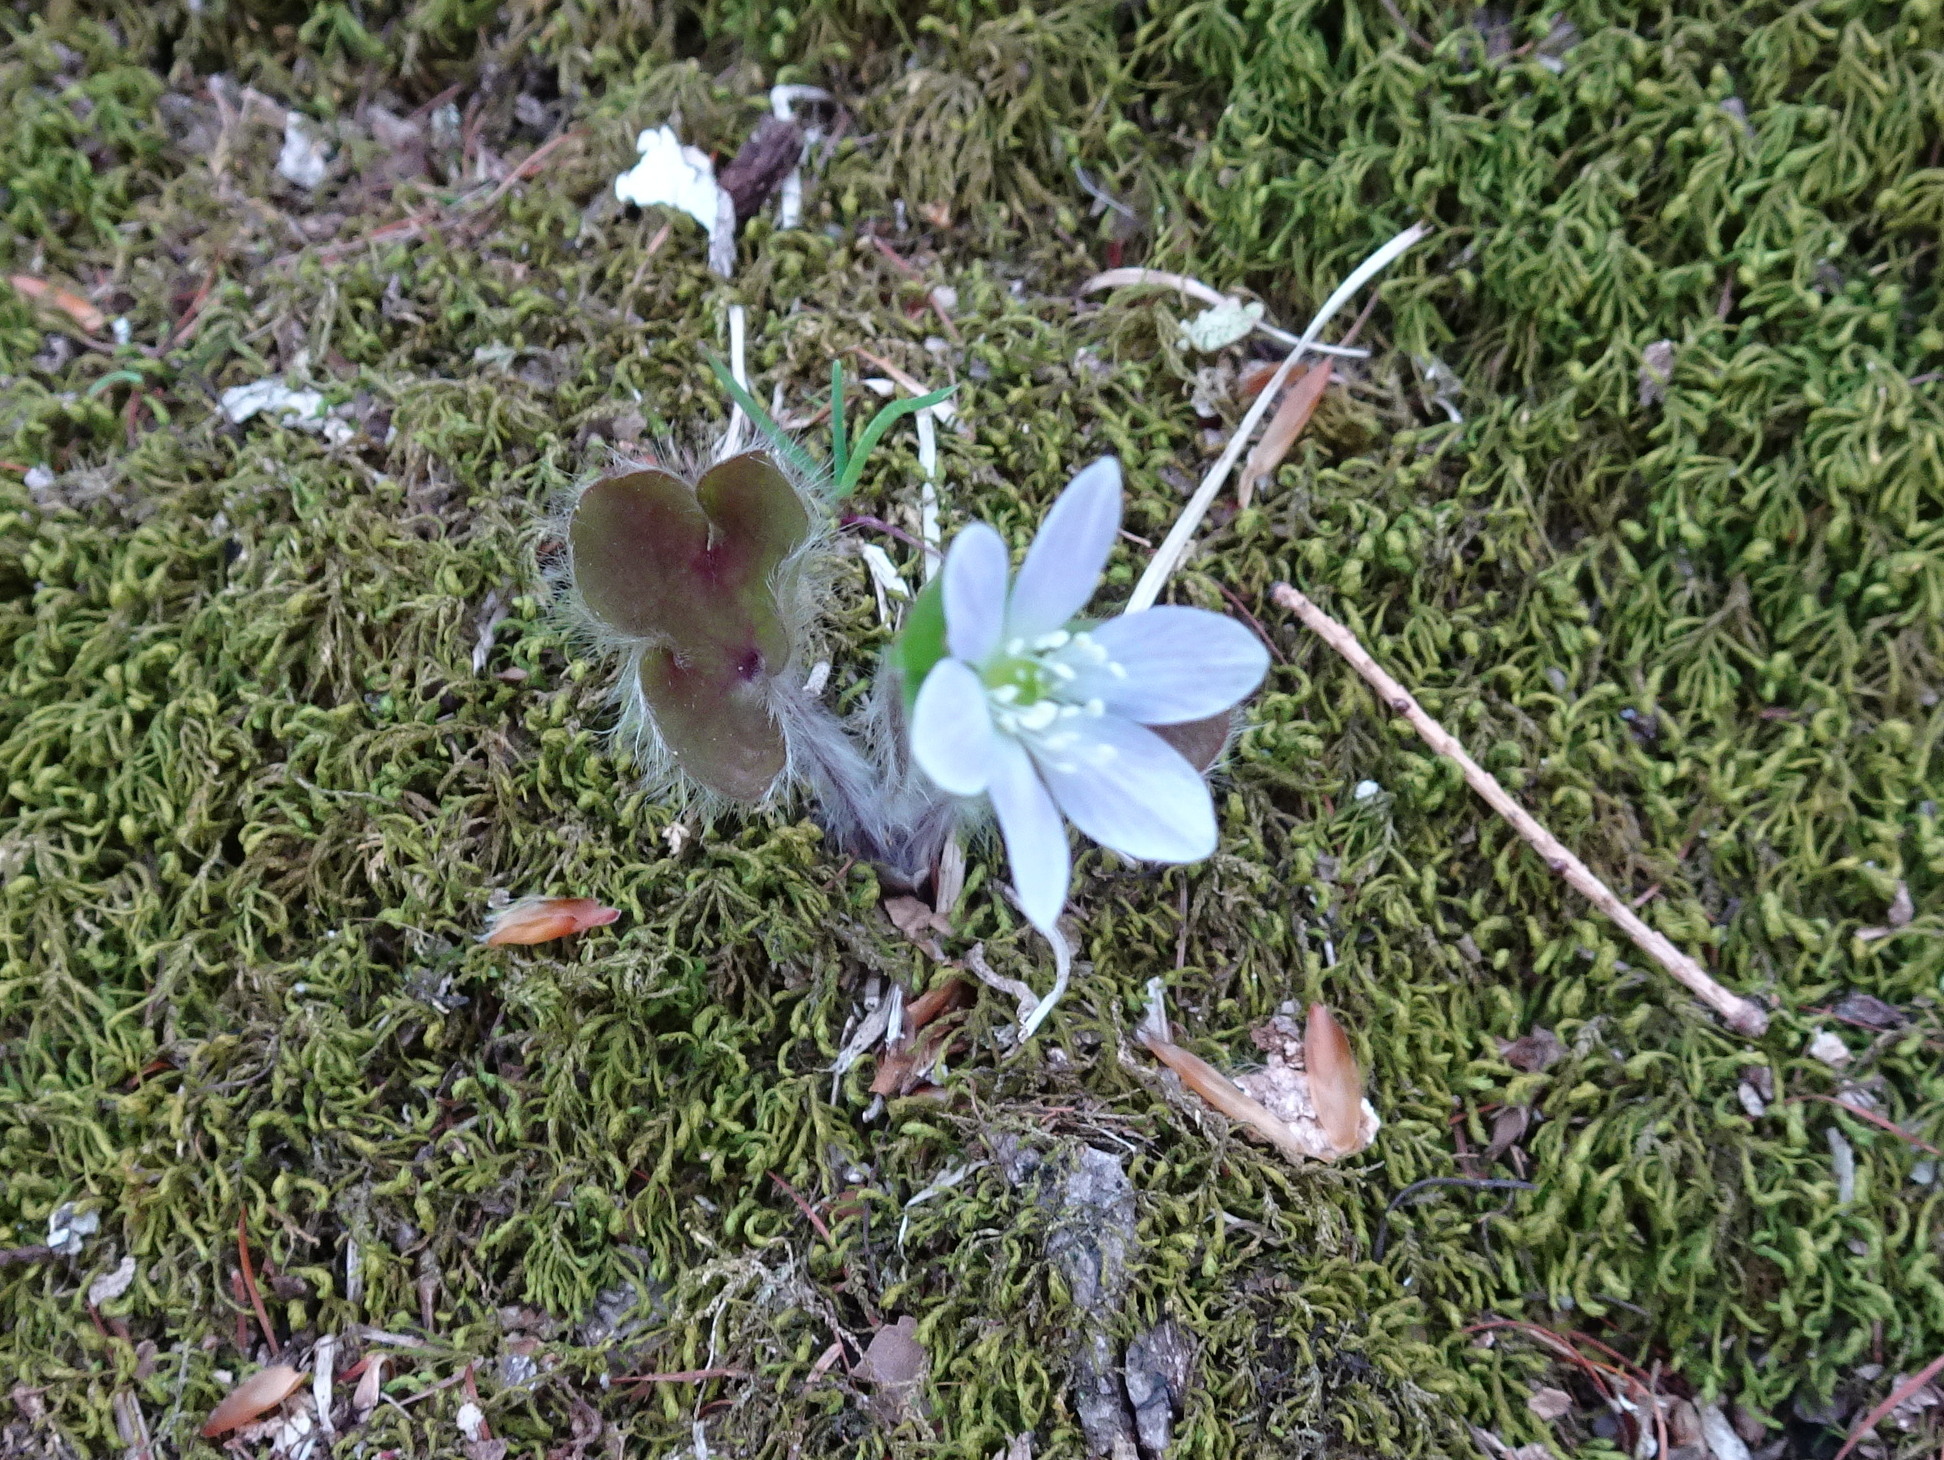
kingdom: Plantae
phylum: Tracheophyta
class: Magnoliopsida
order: Ranunculales
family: Ranunculaceae
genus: Hepatica
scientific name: Hepatica americana
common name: American hepatica
